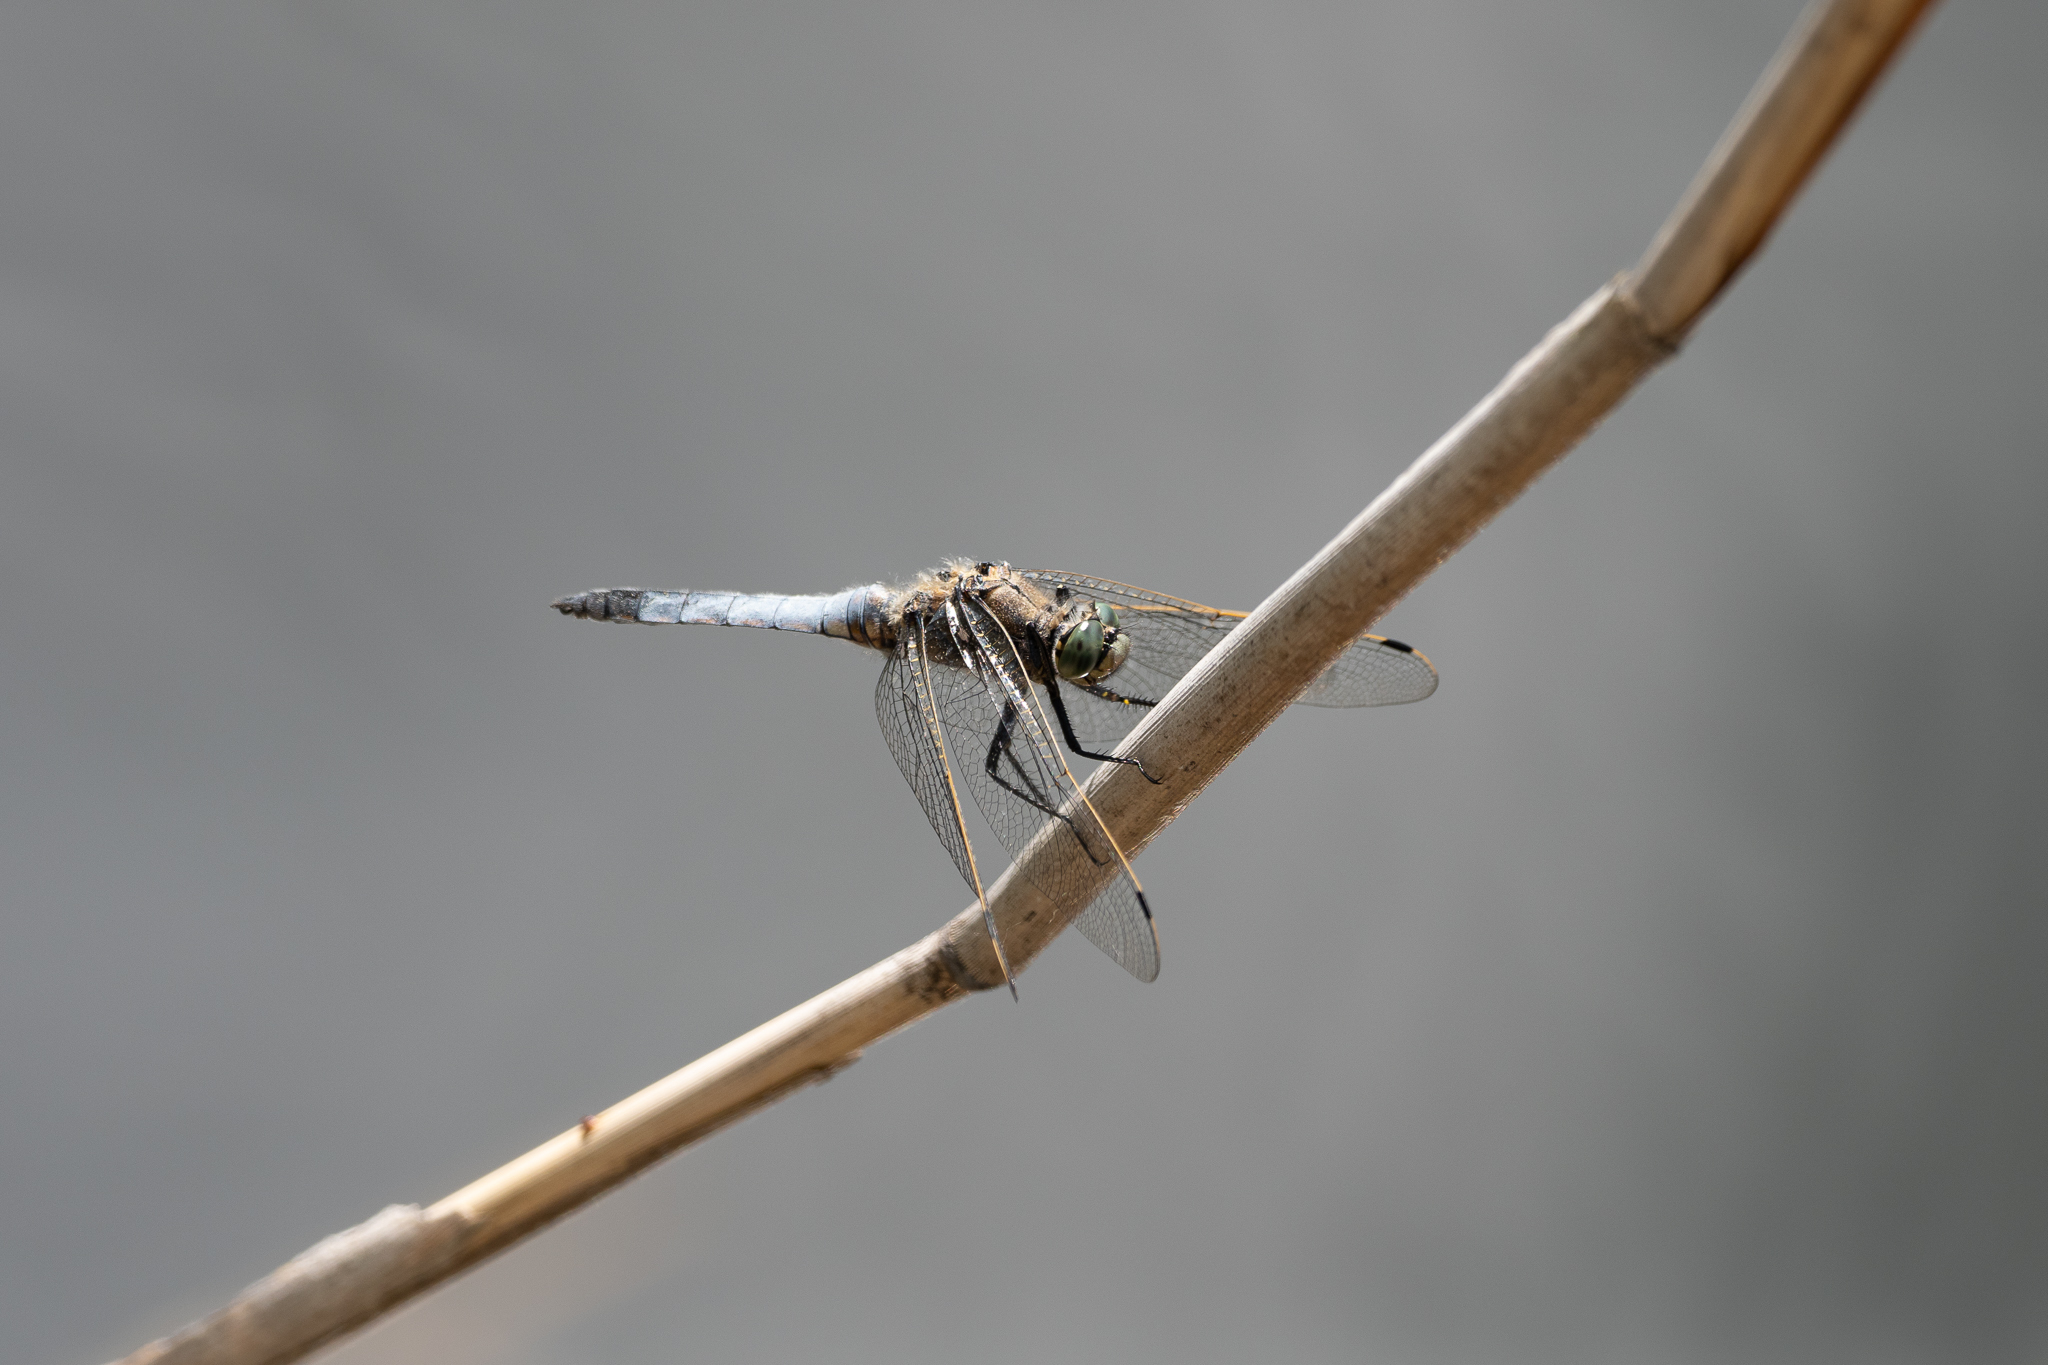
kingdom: Animalia
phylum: Arthropoda
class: Insecta
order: Odonata
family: Libellulidae
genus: Orthetrum
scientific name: Orthetrum cancellatum
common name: Black-tailed skimmer
